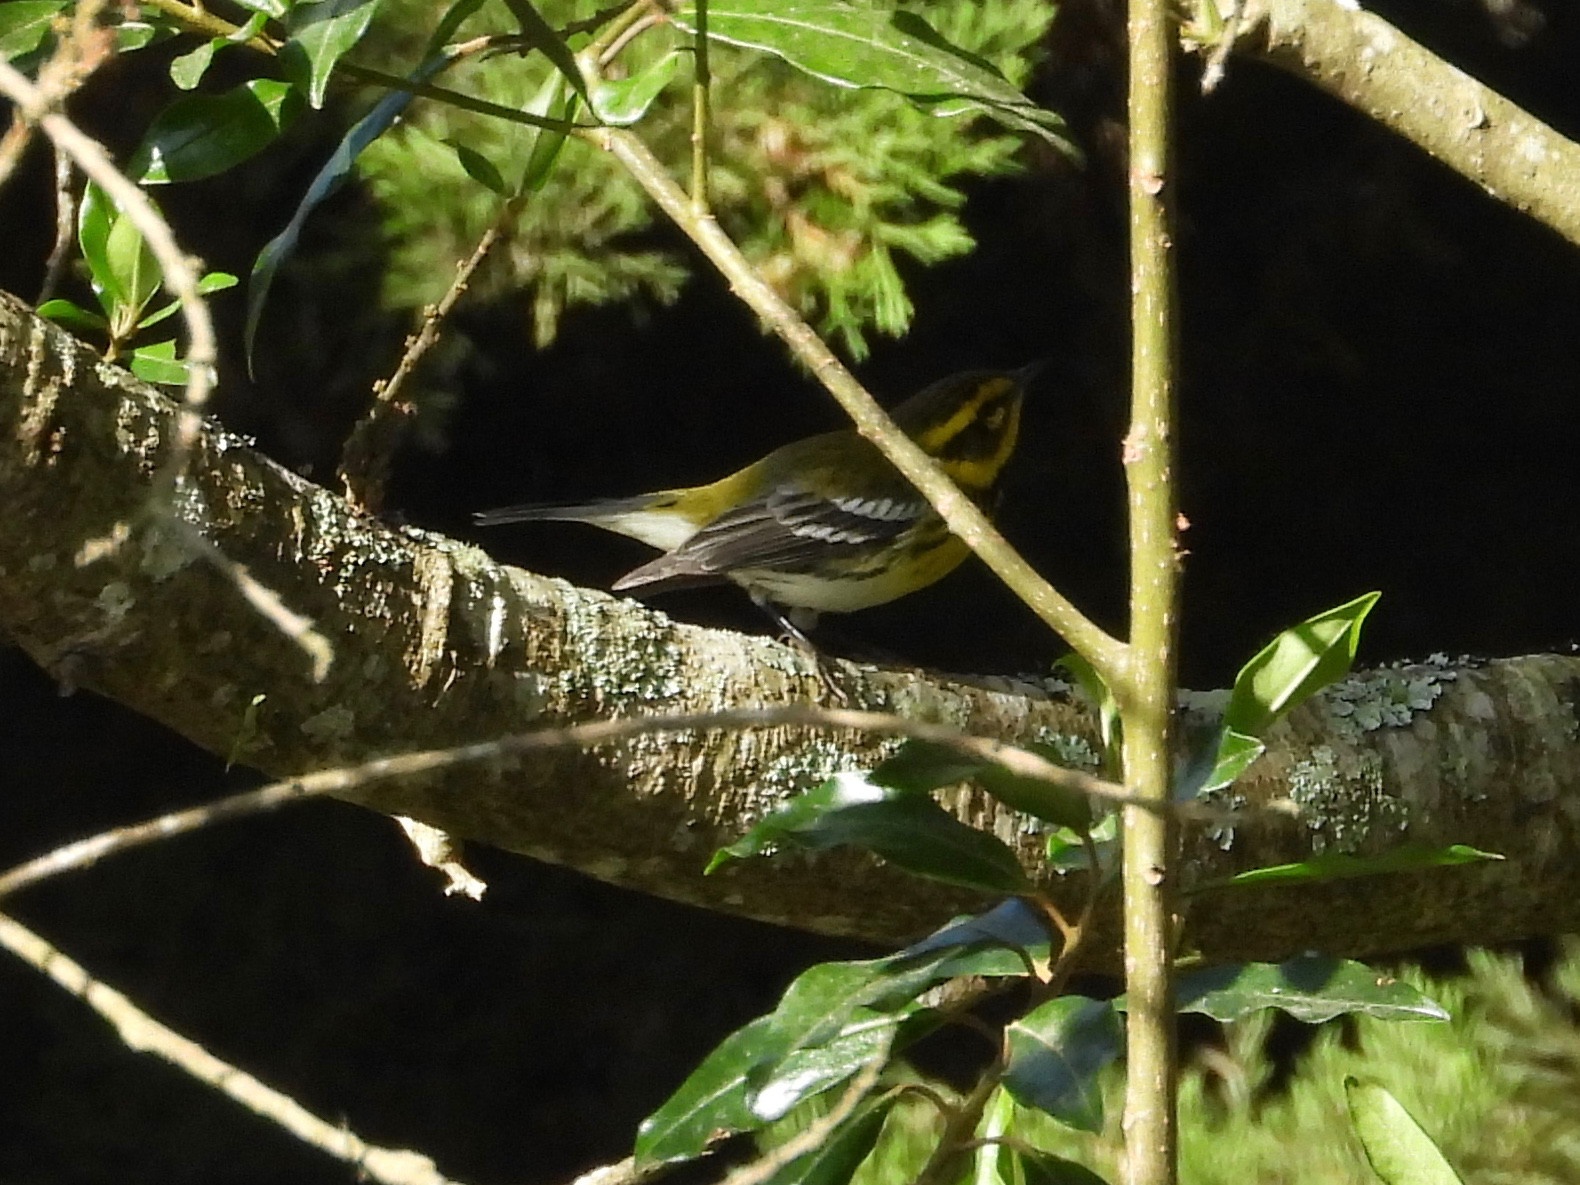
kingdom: Animalia
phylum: Chordata
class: Aves
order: Passeriformes
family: Parulidae
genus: Setophaga
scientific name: Setophaga townsendi
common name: Townsend's warbler
